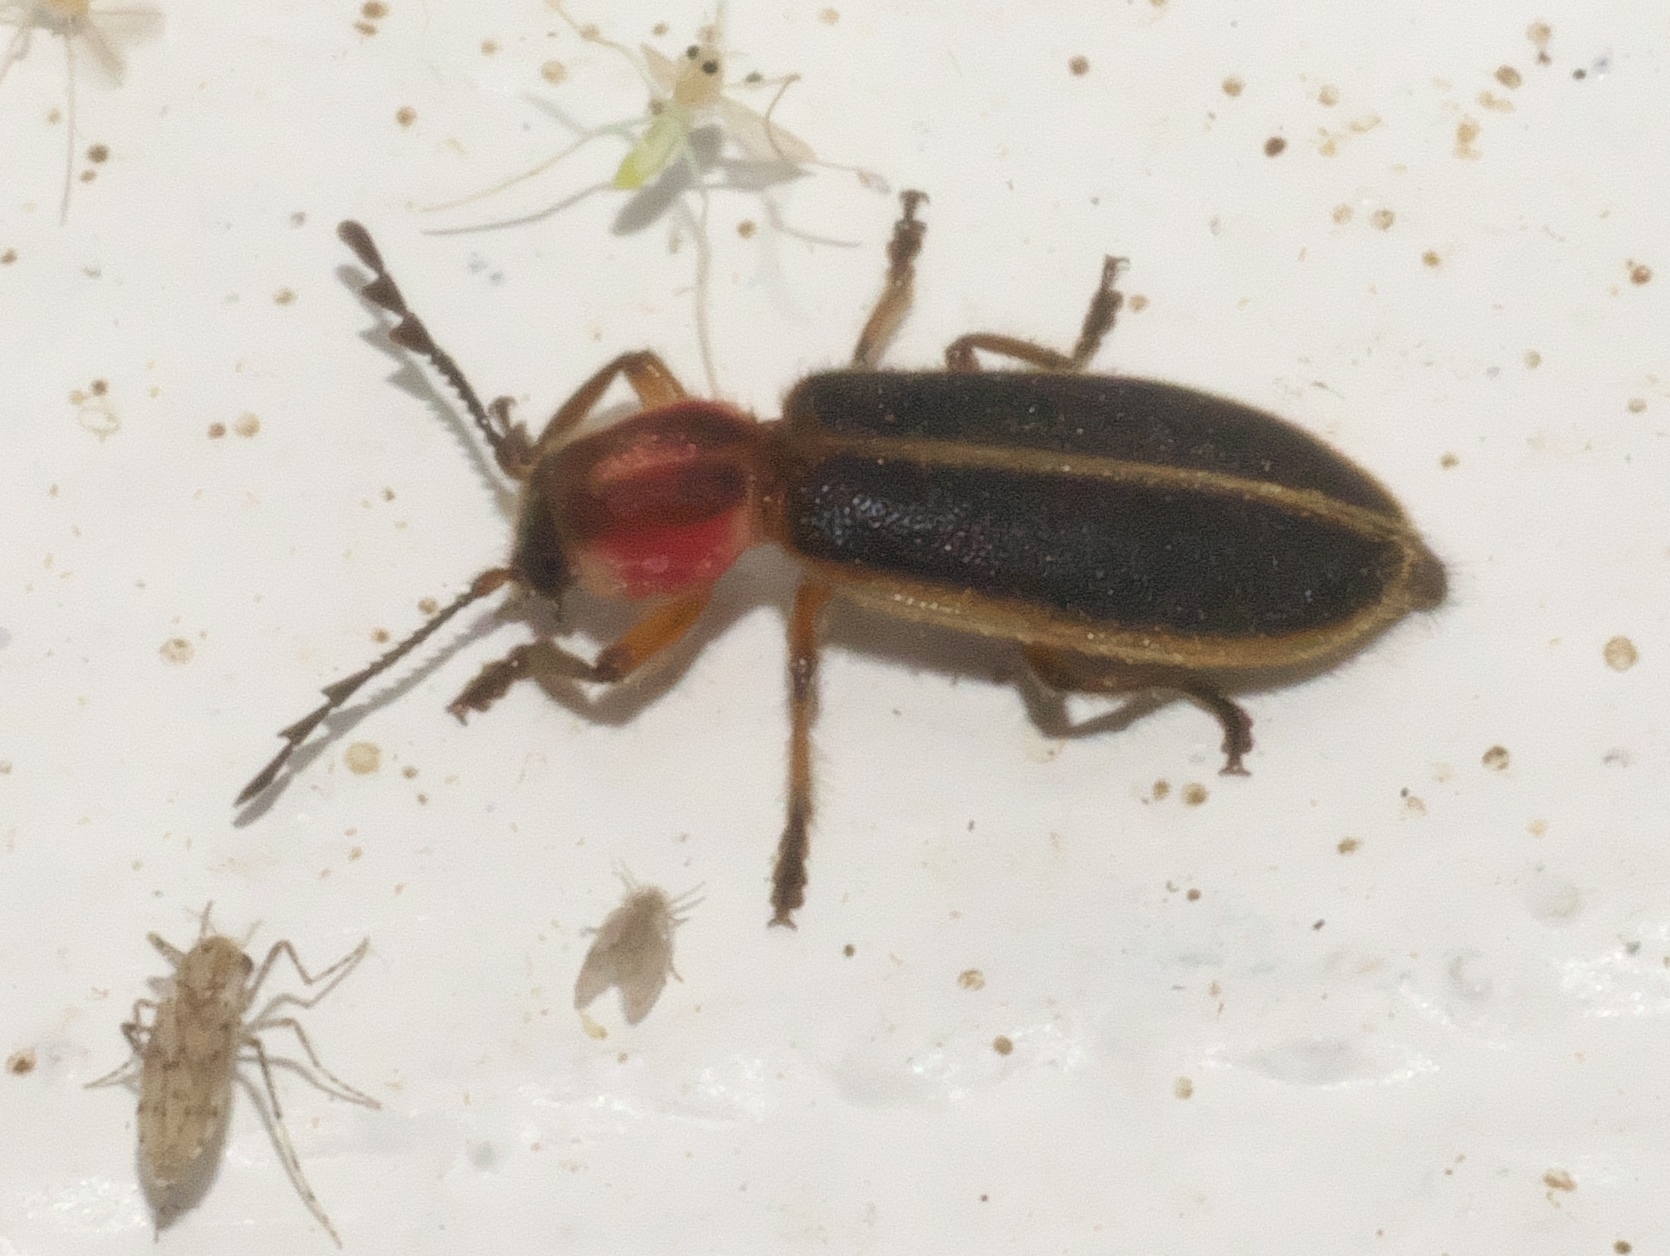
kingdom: Animalia
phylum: Arthropoda
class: Insecta
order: Coleoptera
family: Cleridae
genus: Chariessa
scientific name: Chariessa pilosa
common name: Pilose checkered beetle
